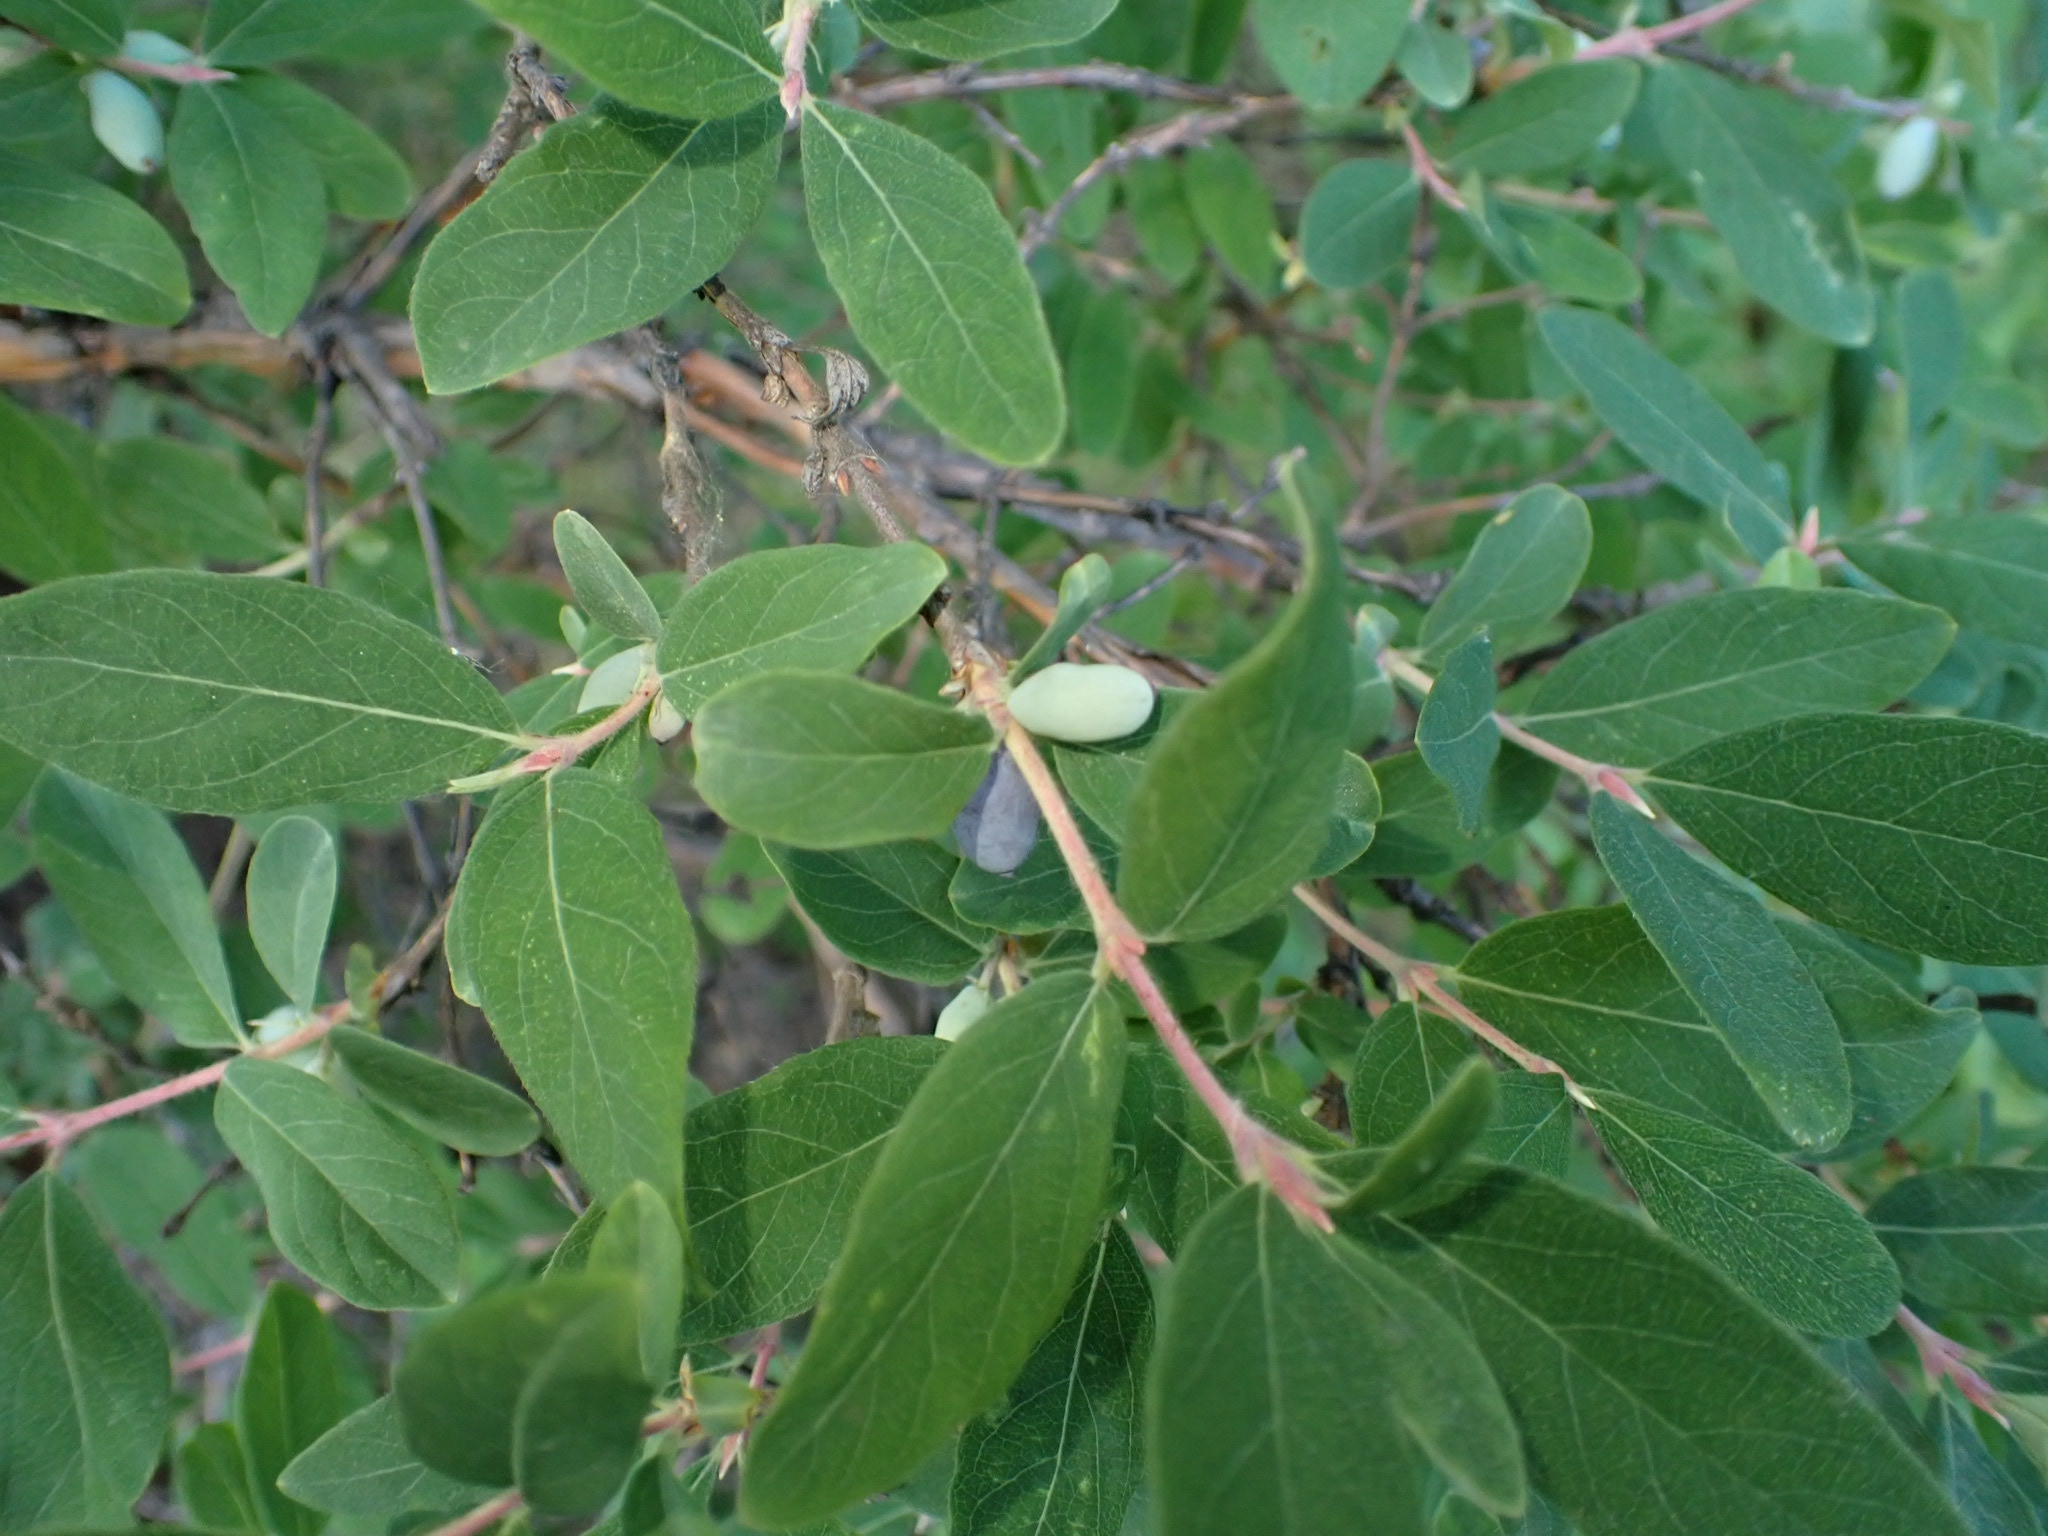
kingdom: Plantae
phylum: Tracheophyta
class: Magnoliopsida
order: Dipsacales
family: Caprifoliaceae
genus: Lonicera
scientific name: Lonicera caerulea
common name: Blue honeysuckle
